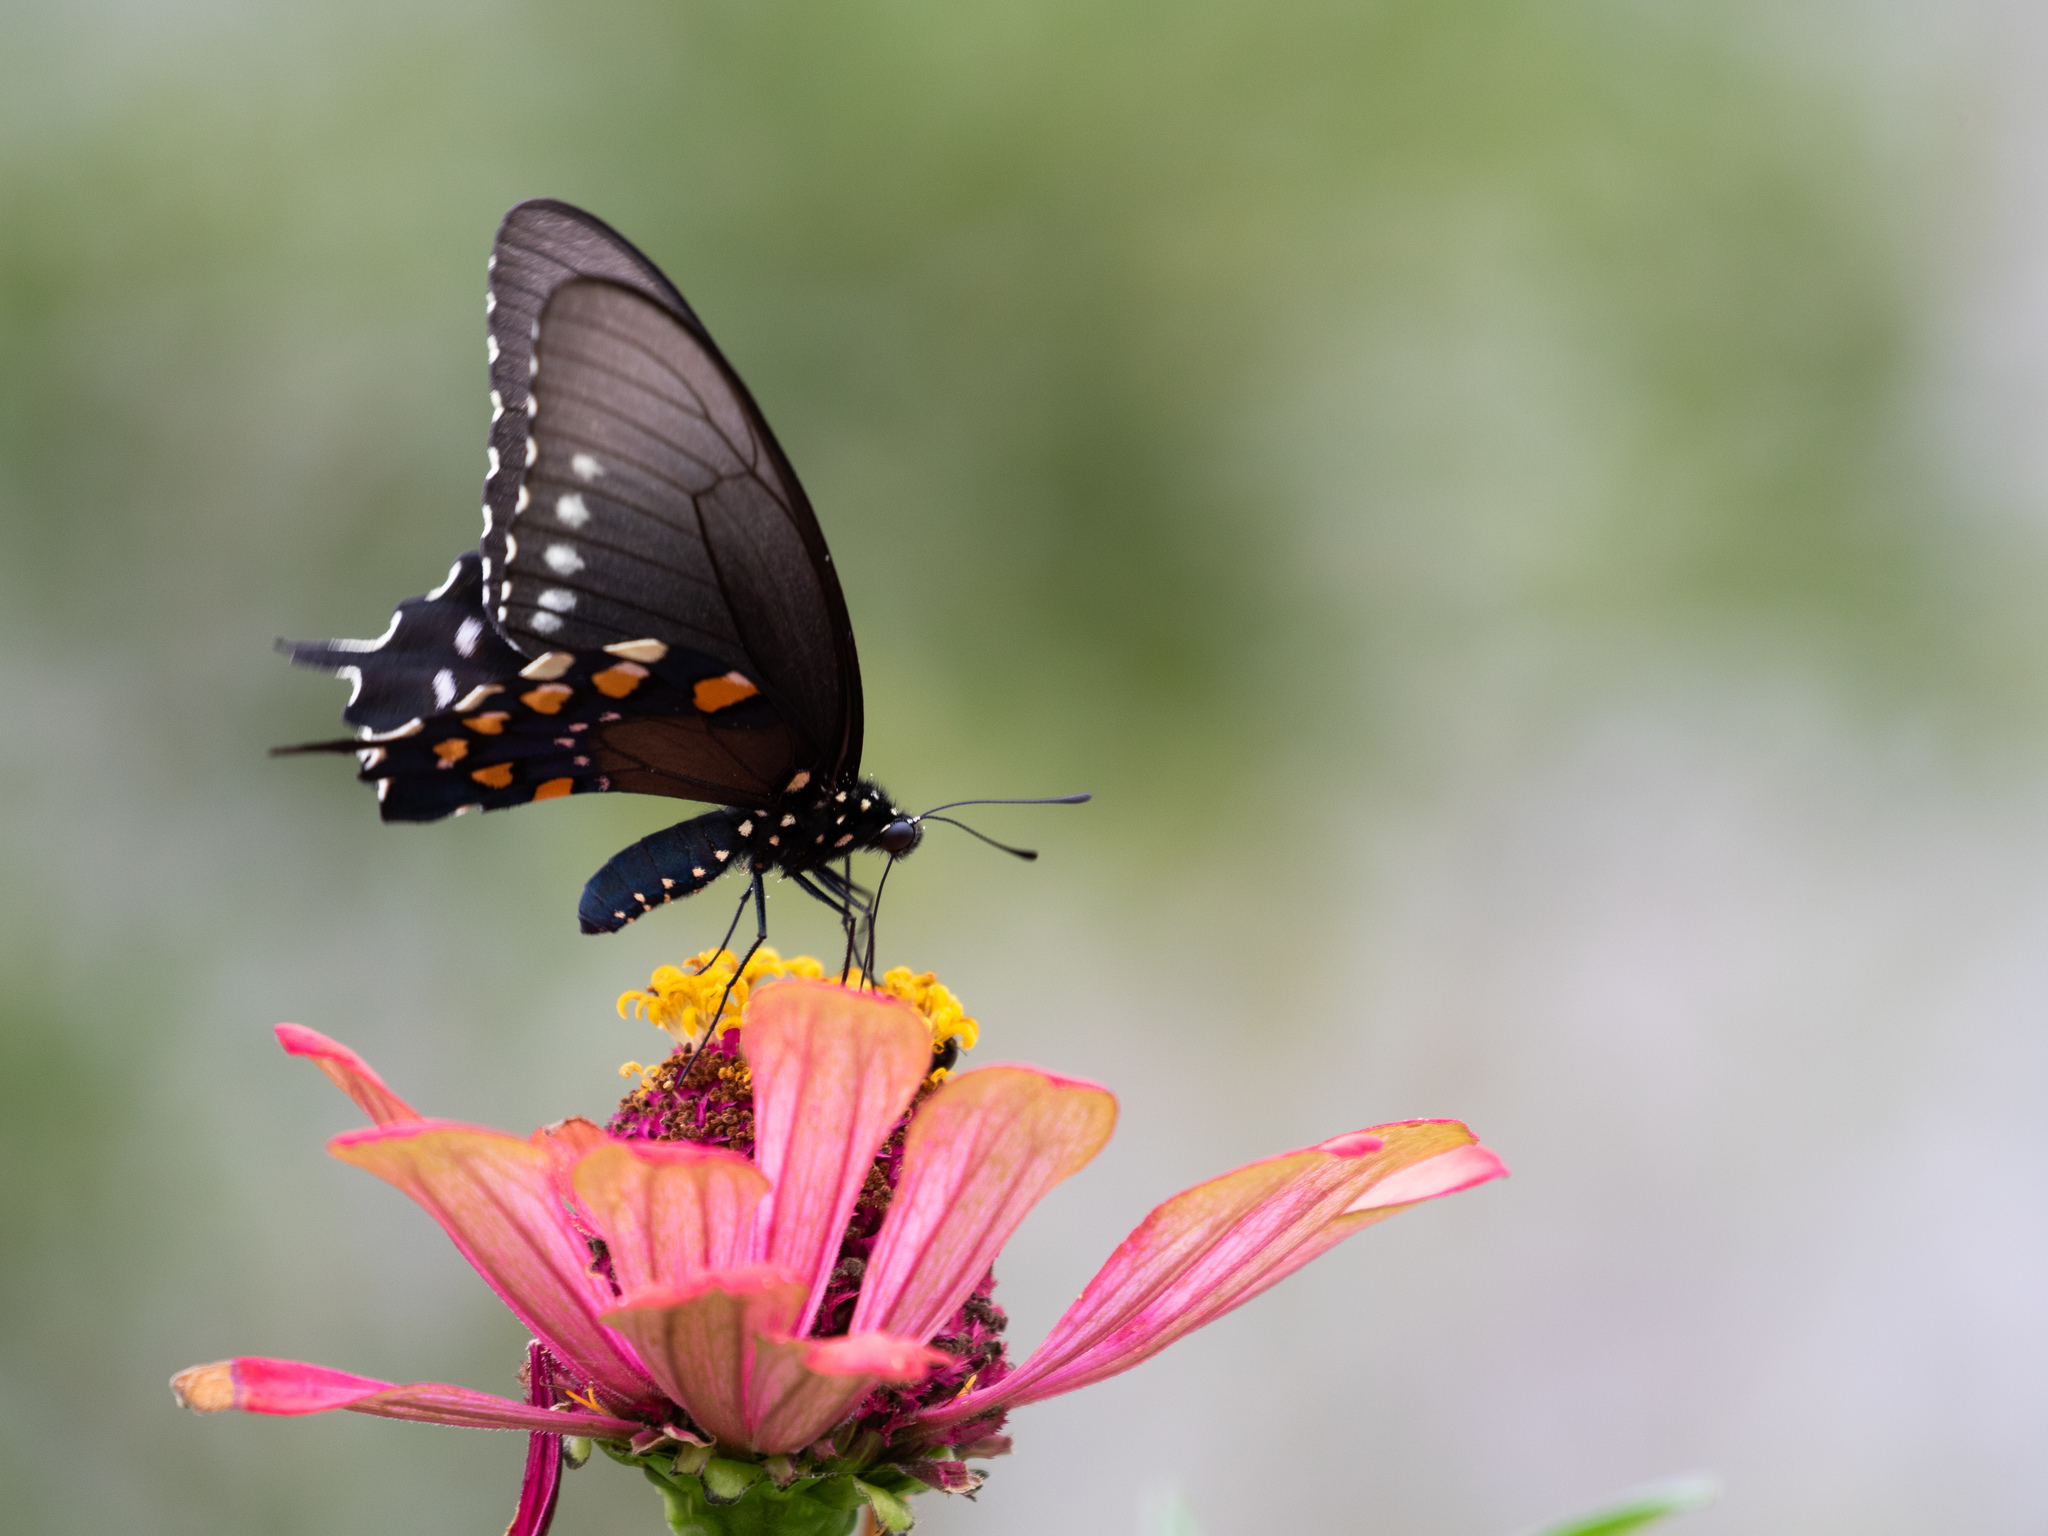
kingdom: Animalia
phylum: Arthropoda
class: Insecta
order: Lepidoptera
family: Papilionidae
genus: Battus
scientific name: Battus philenor
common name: Pipevine swallowtail
